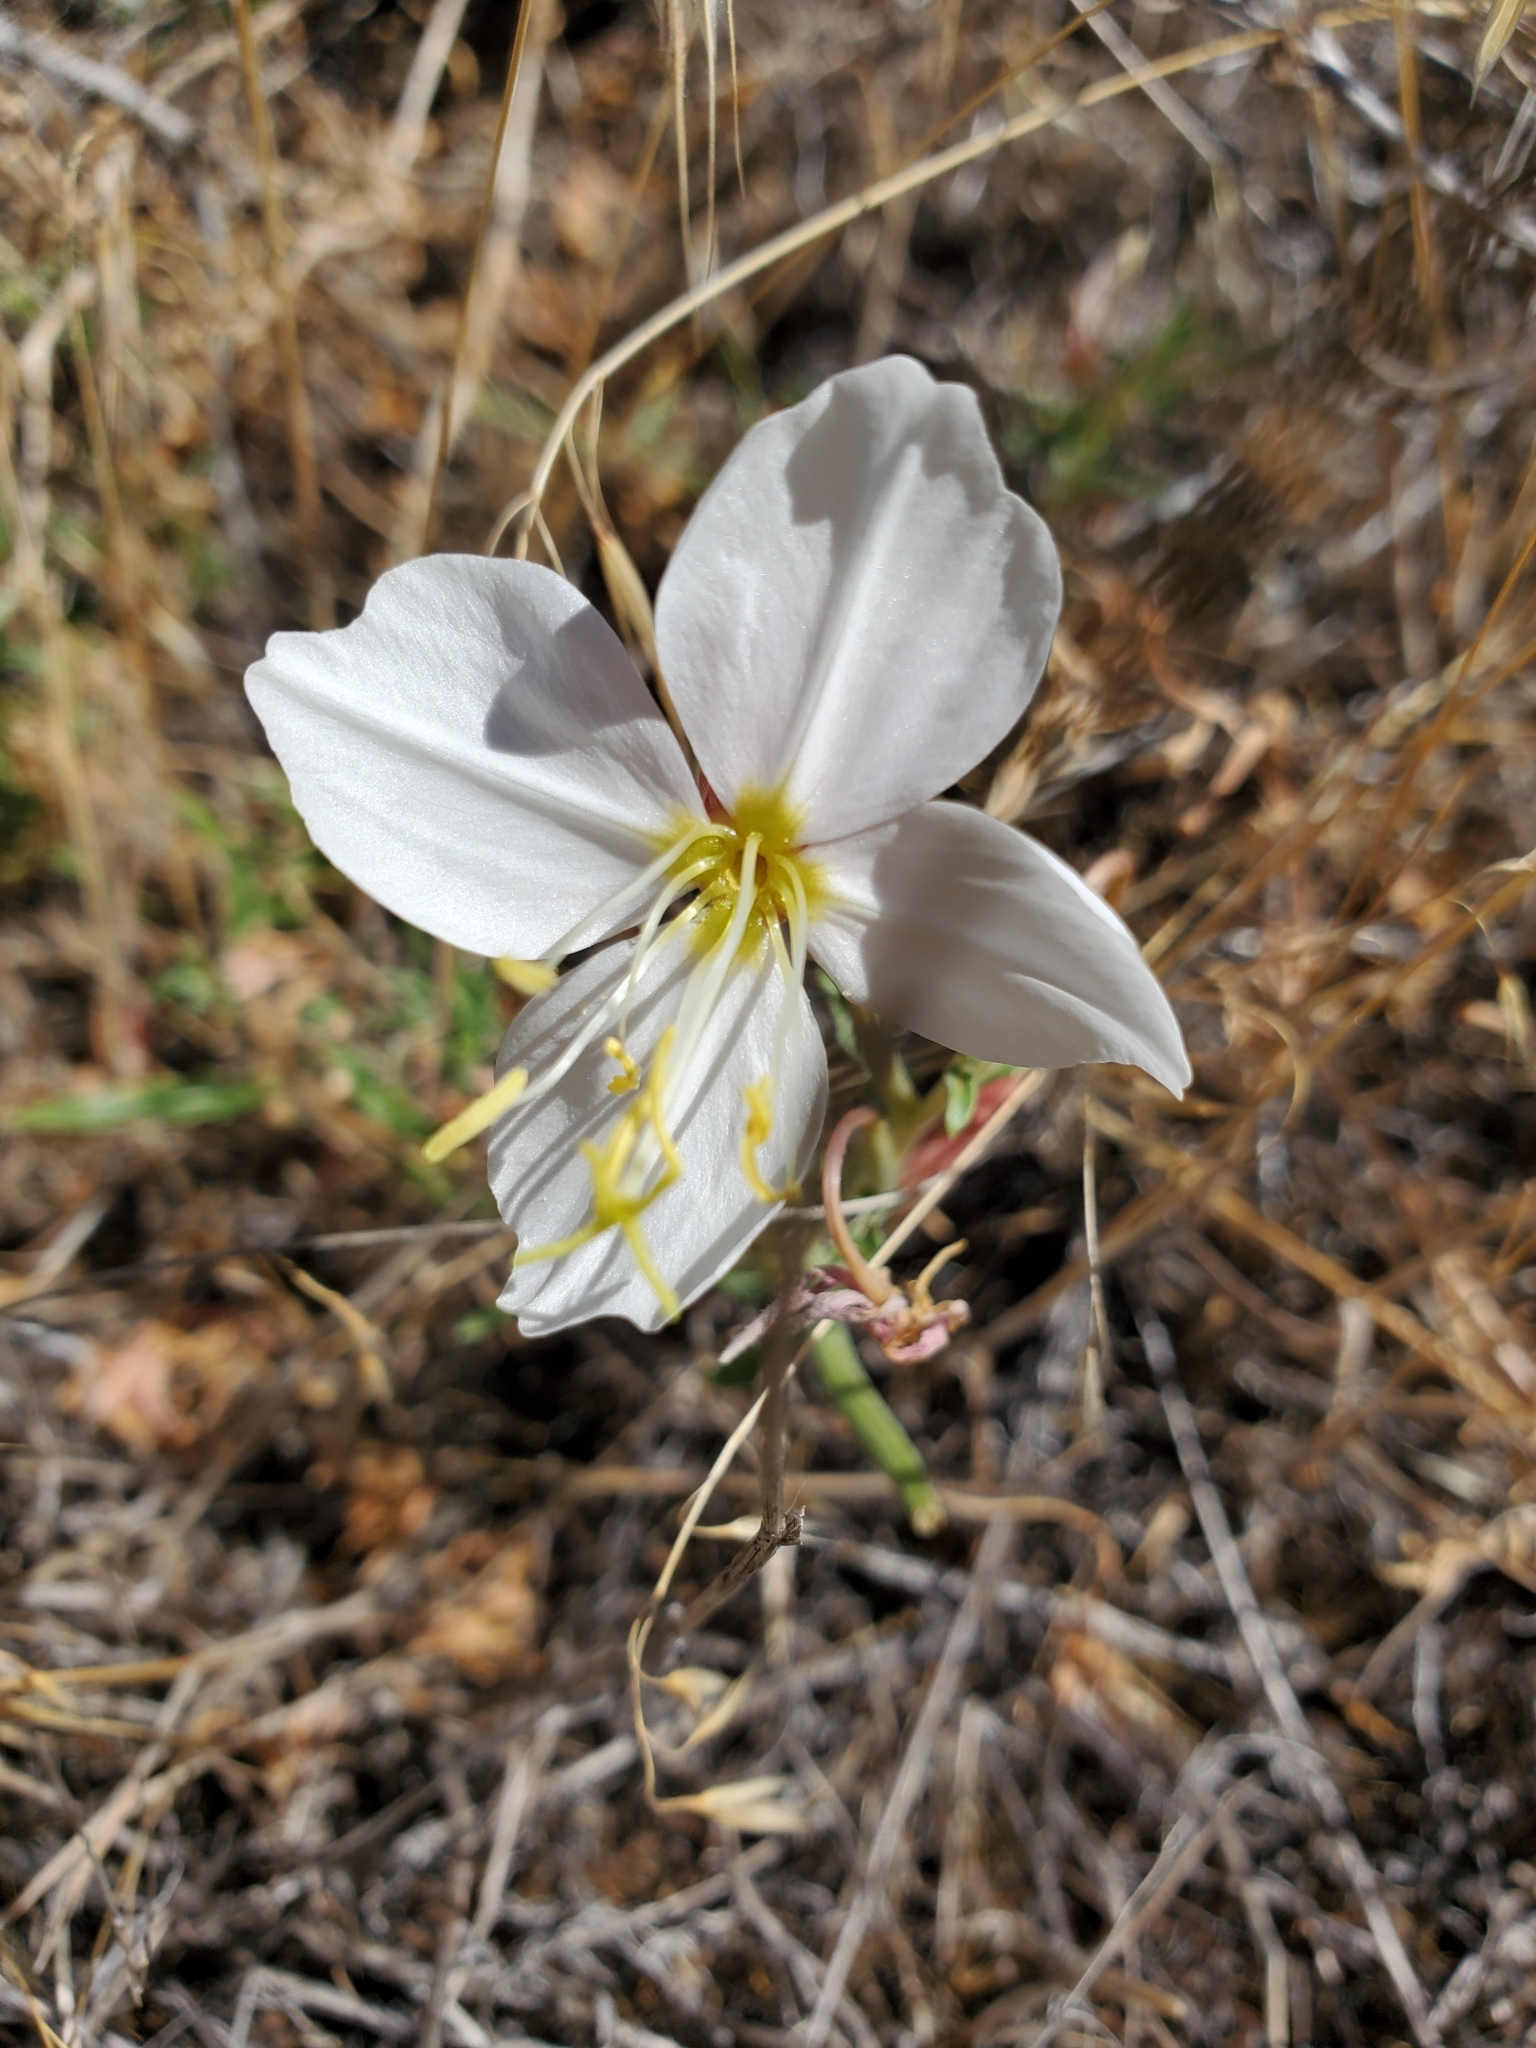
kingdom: Plantae
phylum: Tracheophyta
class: Magnoliopsida
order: Myrtales
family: Onagraceae
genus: Oenothera
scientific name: Oenothera pallida
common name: Pale evening-primrose
